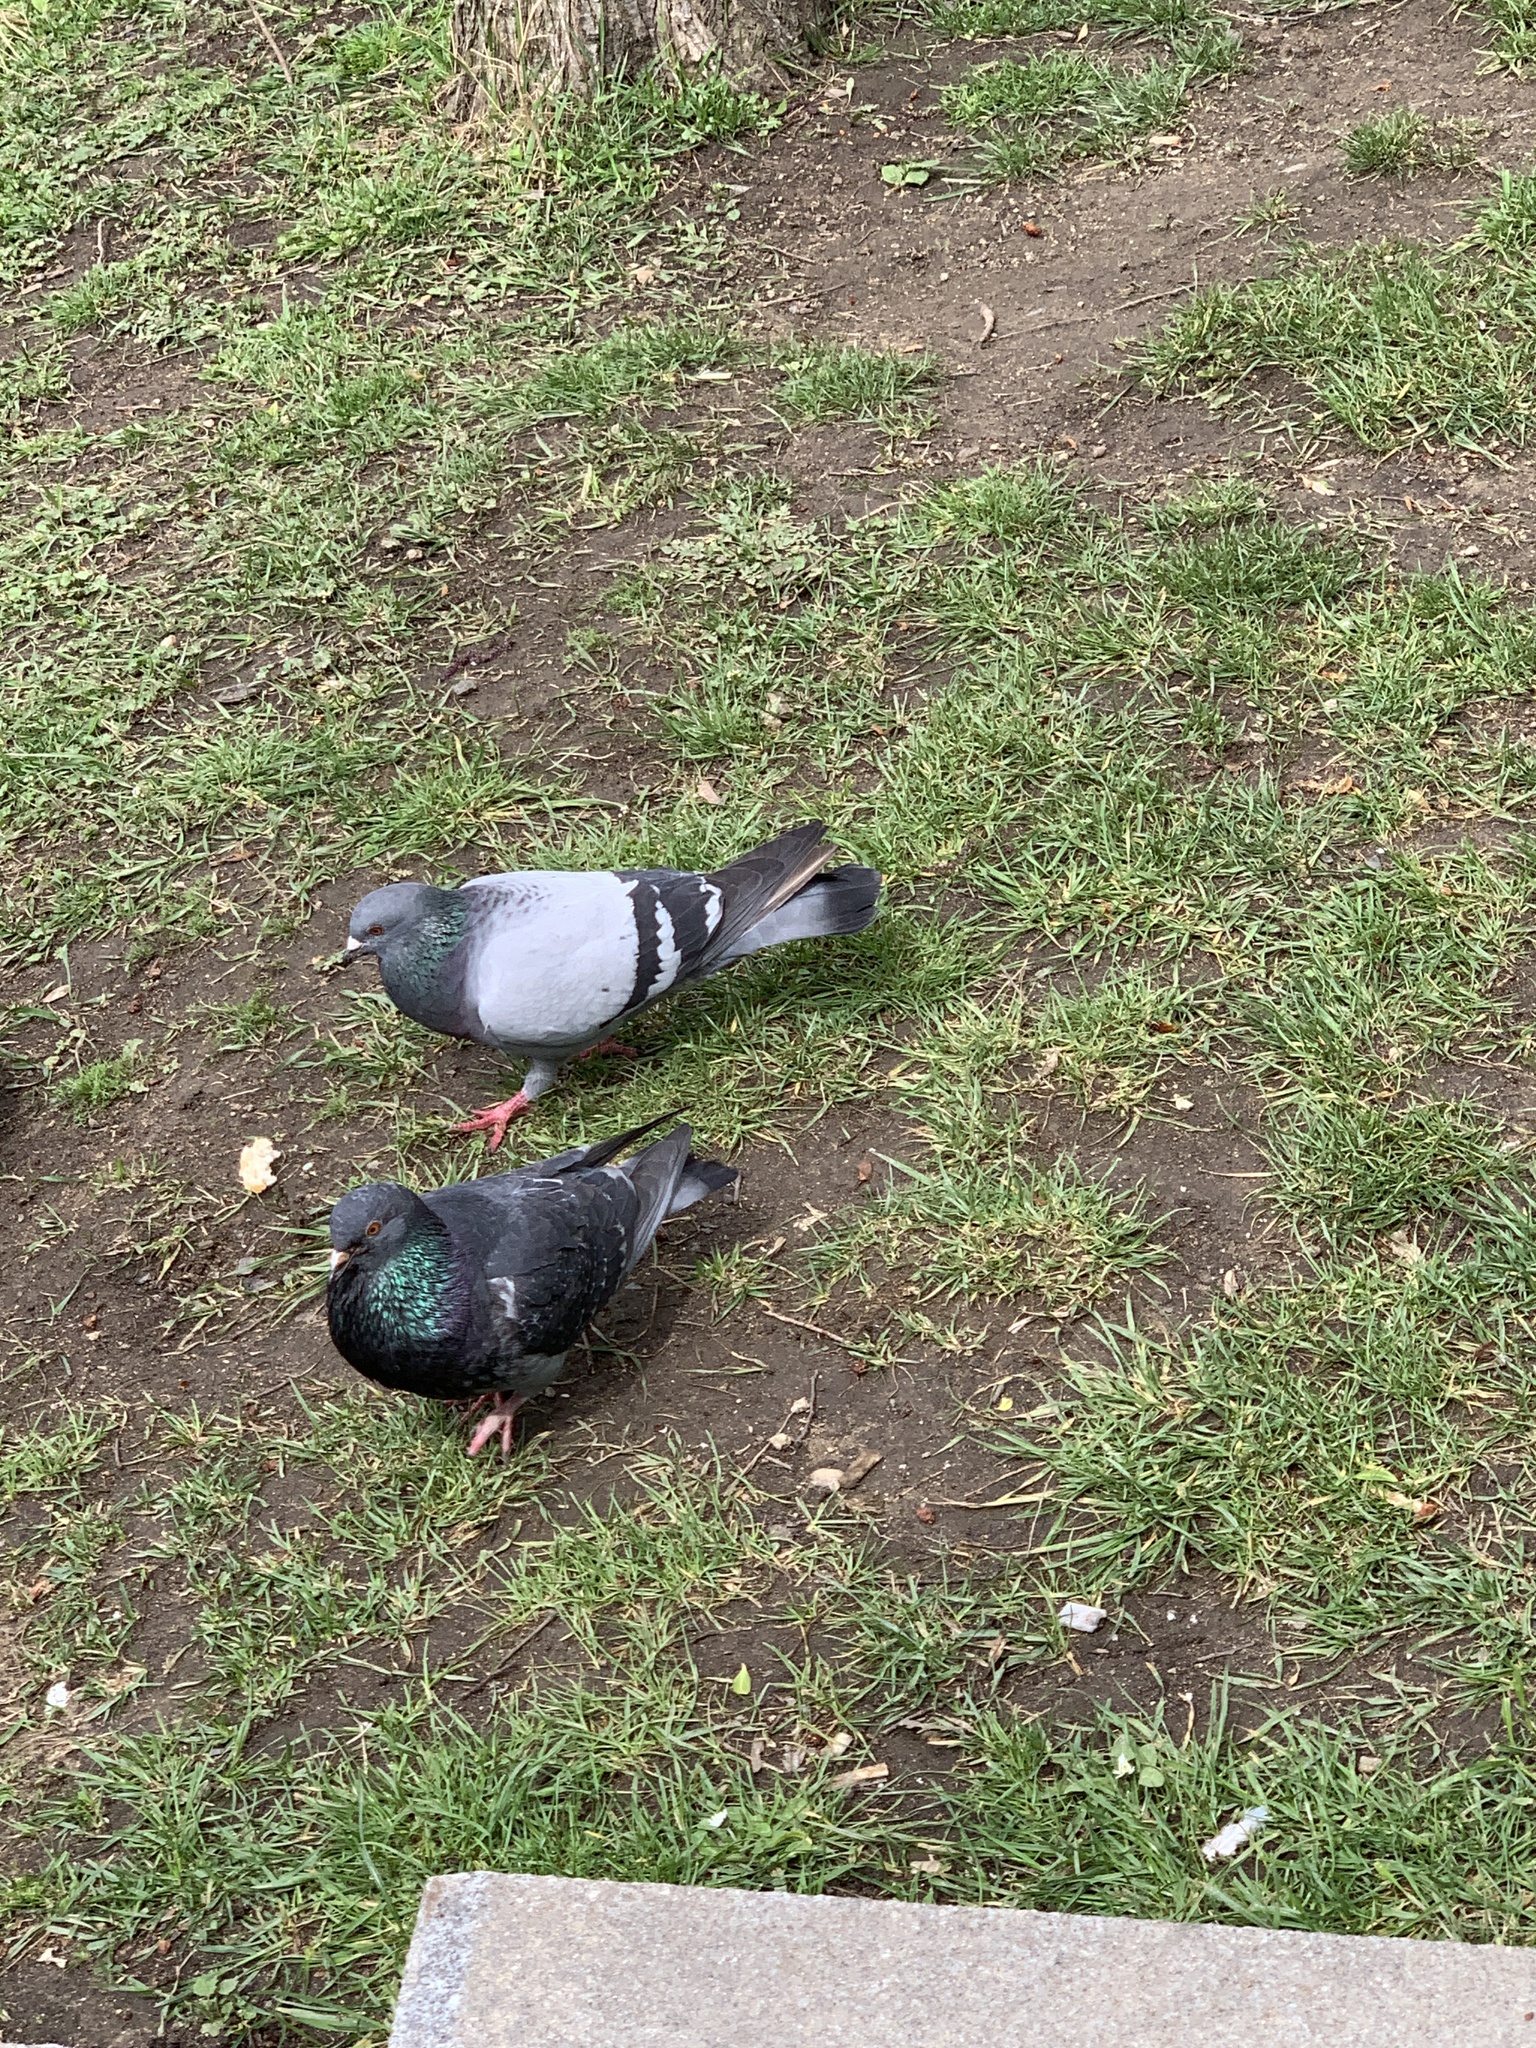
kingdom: Animalia
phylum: Chordata
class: Aves
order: Columbiformes
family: Columbidae
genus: Columba
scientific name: Columba livia
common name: Rock pigeon
